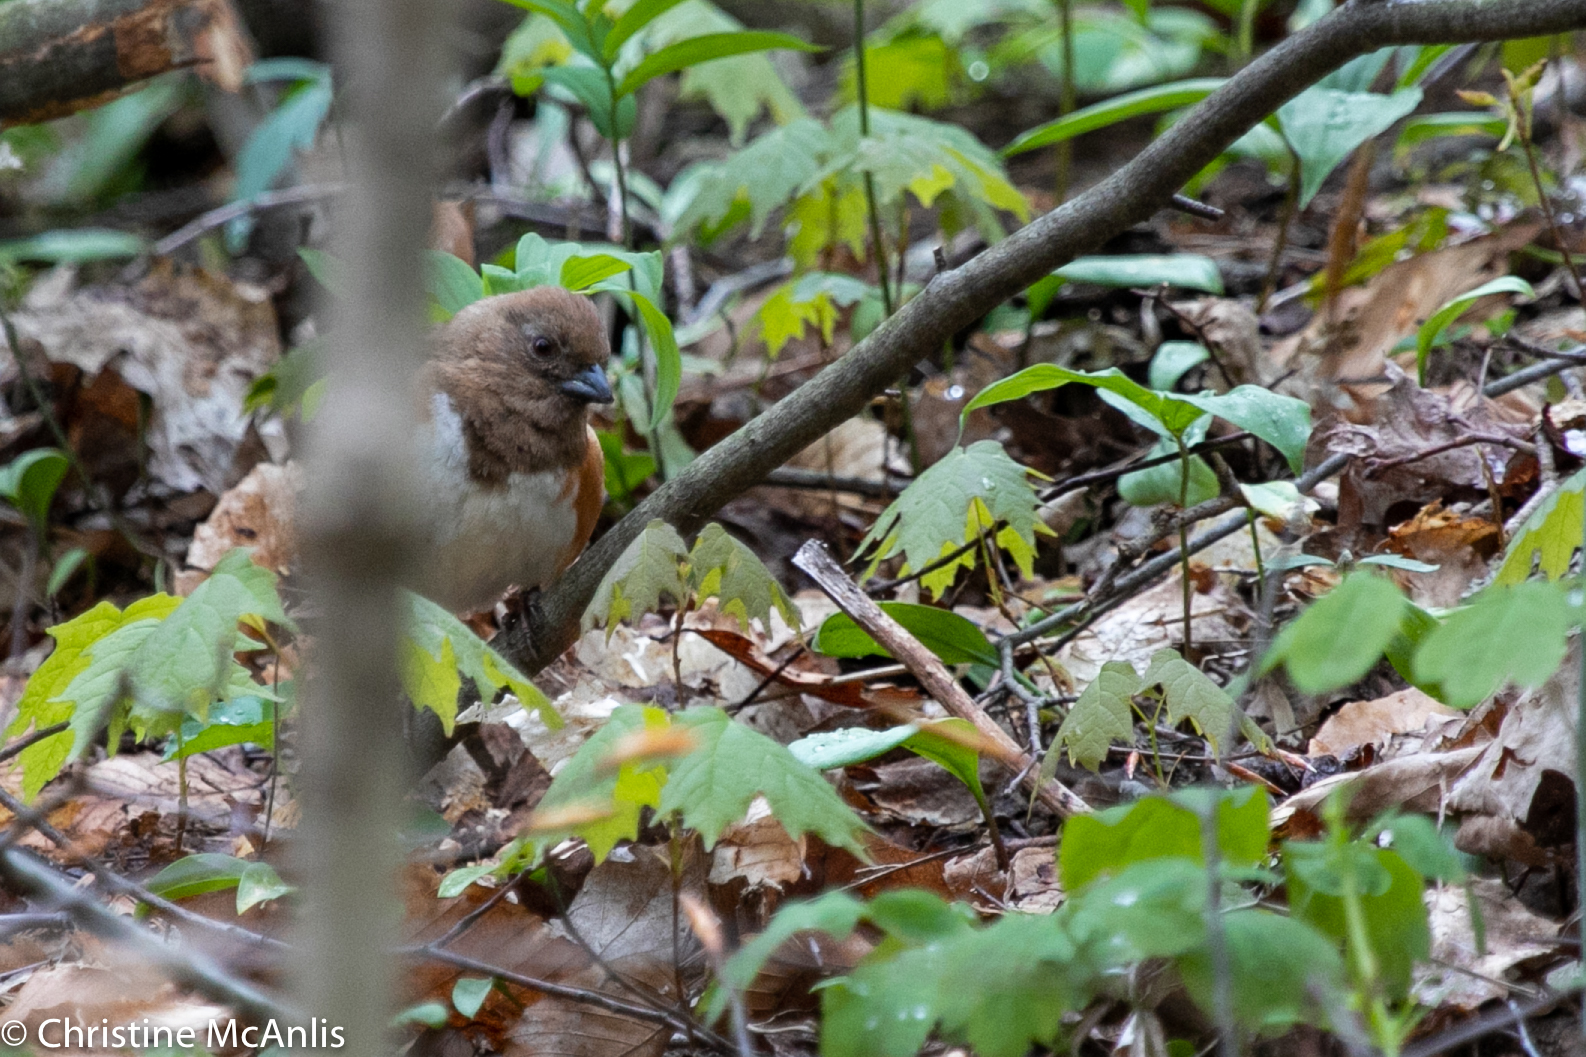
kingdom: Animalia
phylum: Chordata
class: Aves
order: Passeriformes
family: Passerellidae
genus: Pipilo
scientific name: Pipilo erythrophthalmus
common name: Eastern towhee
